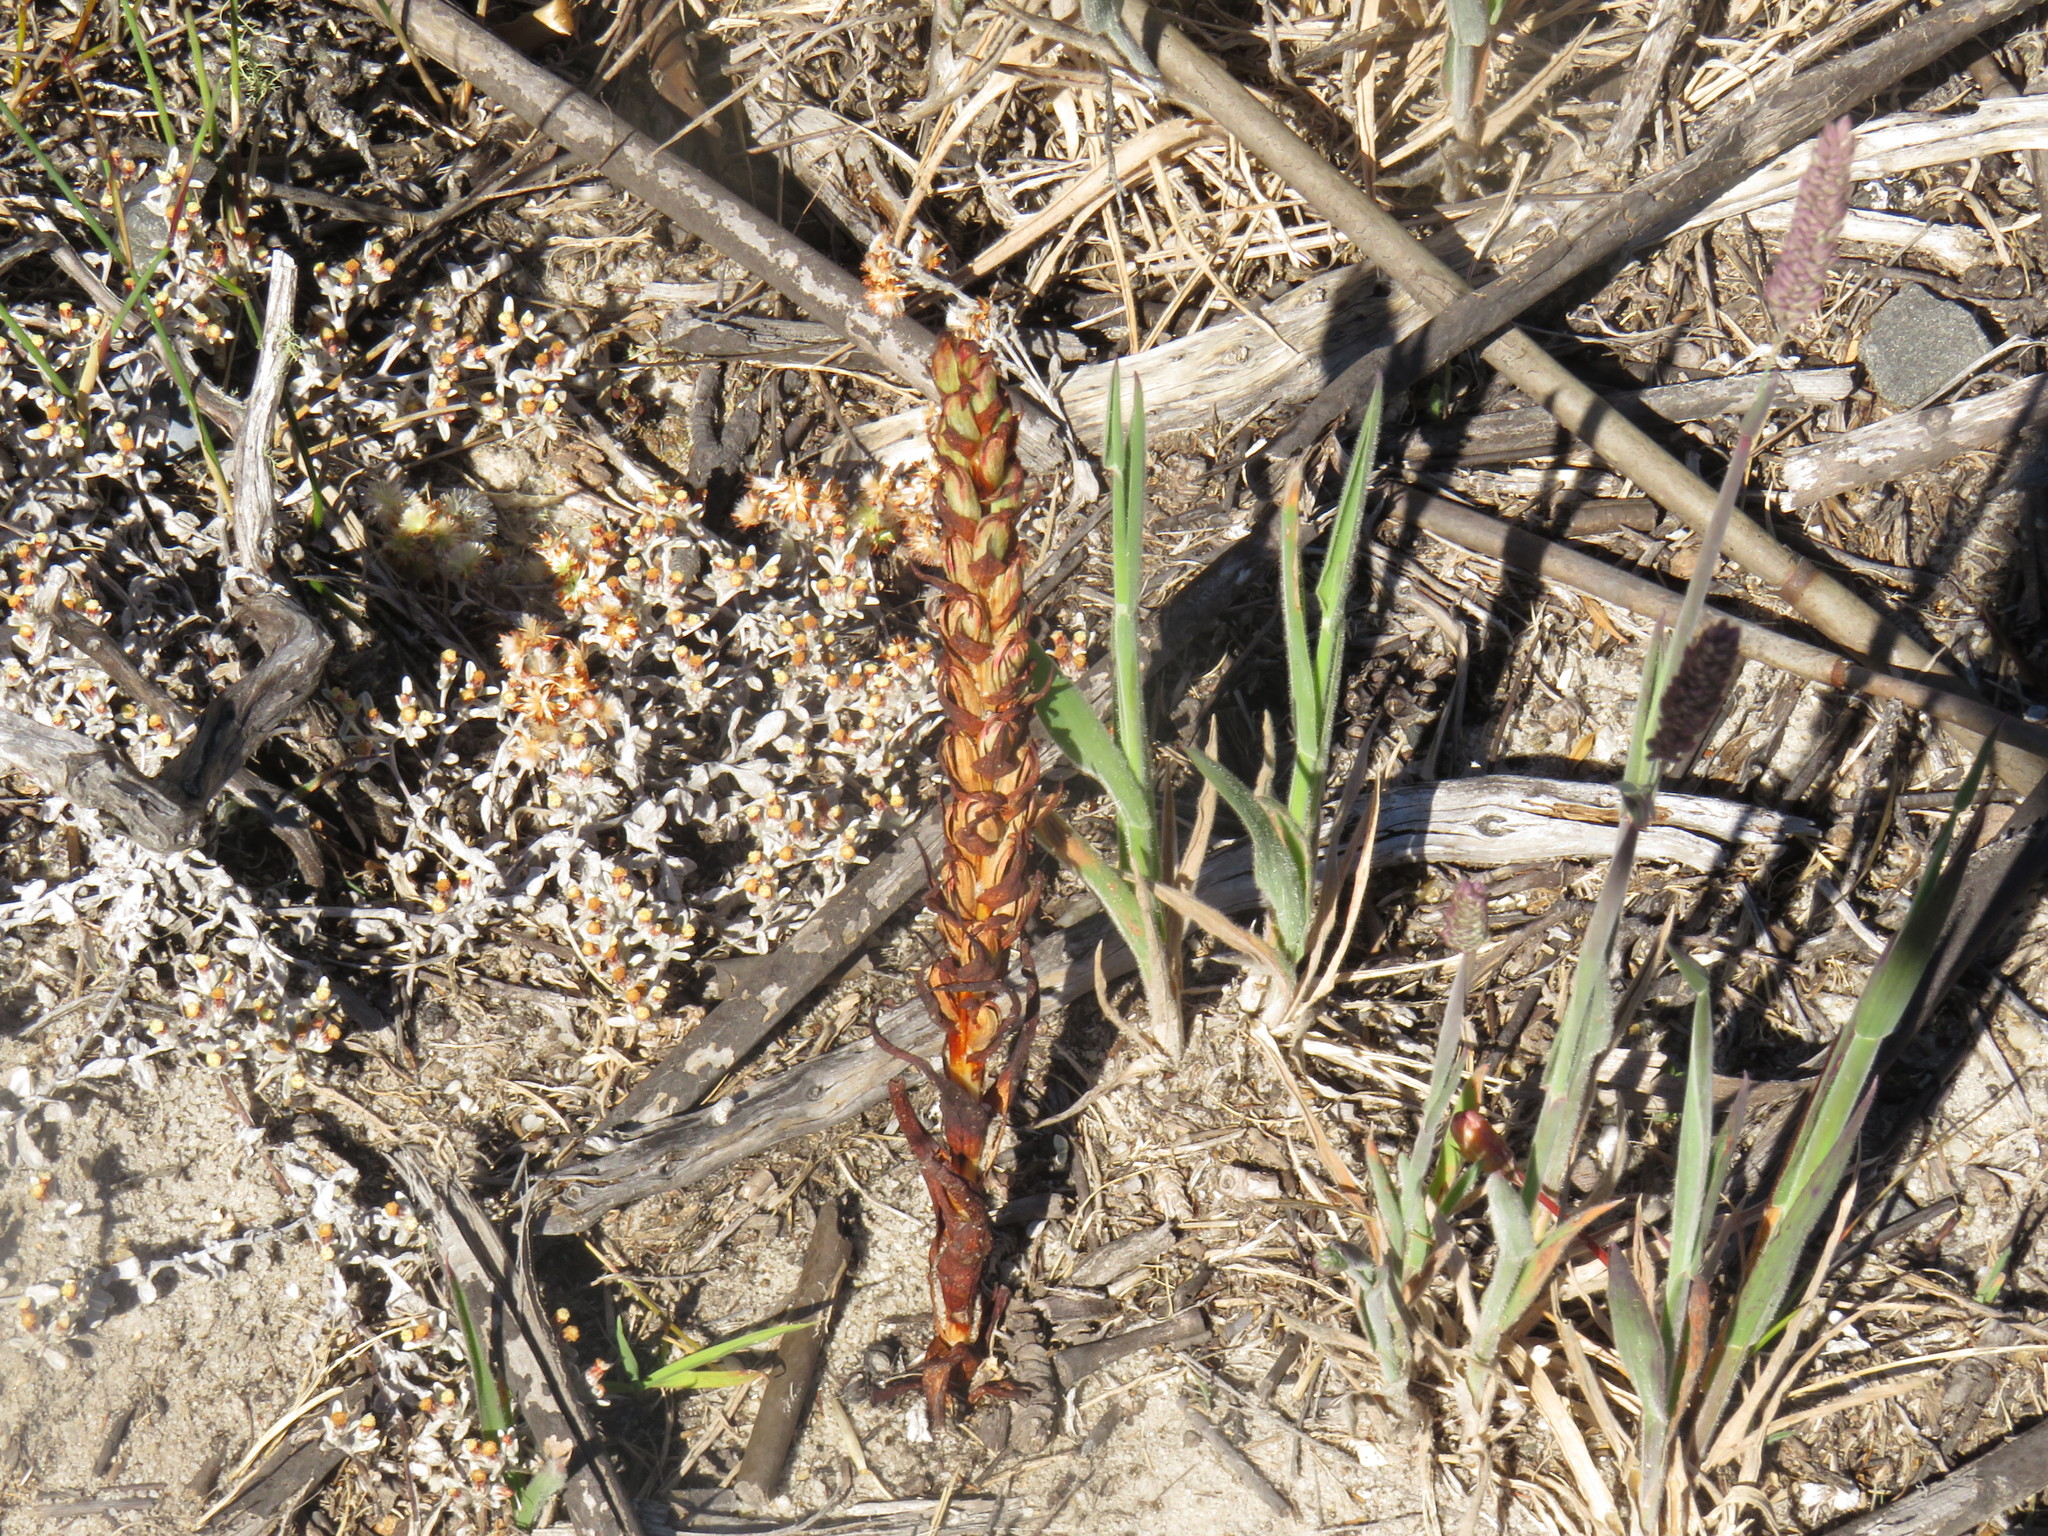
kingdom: Plantae
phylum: Tracheophyta
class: Liliopsida
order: Asparagales
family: Orchidaceae
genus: Disa
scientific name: Disa bracteata
